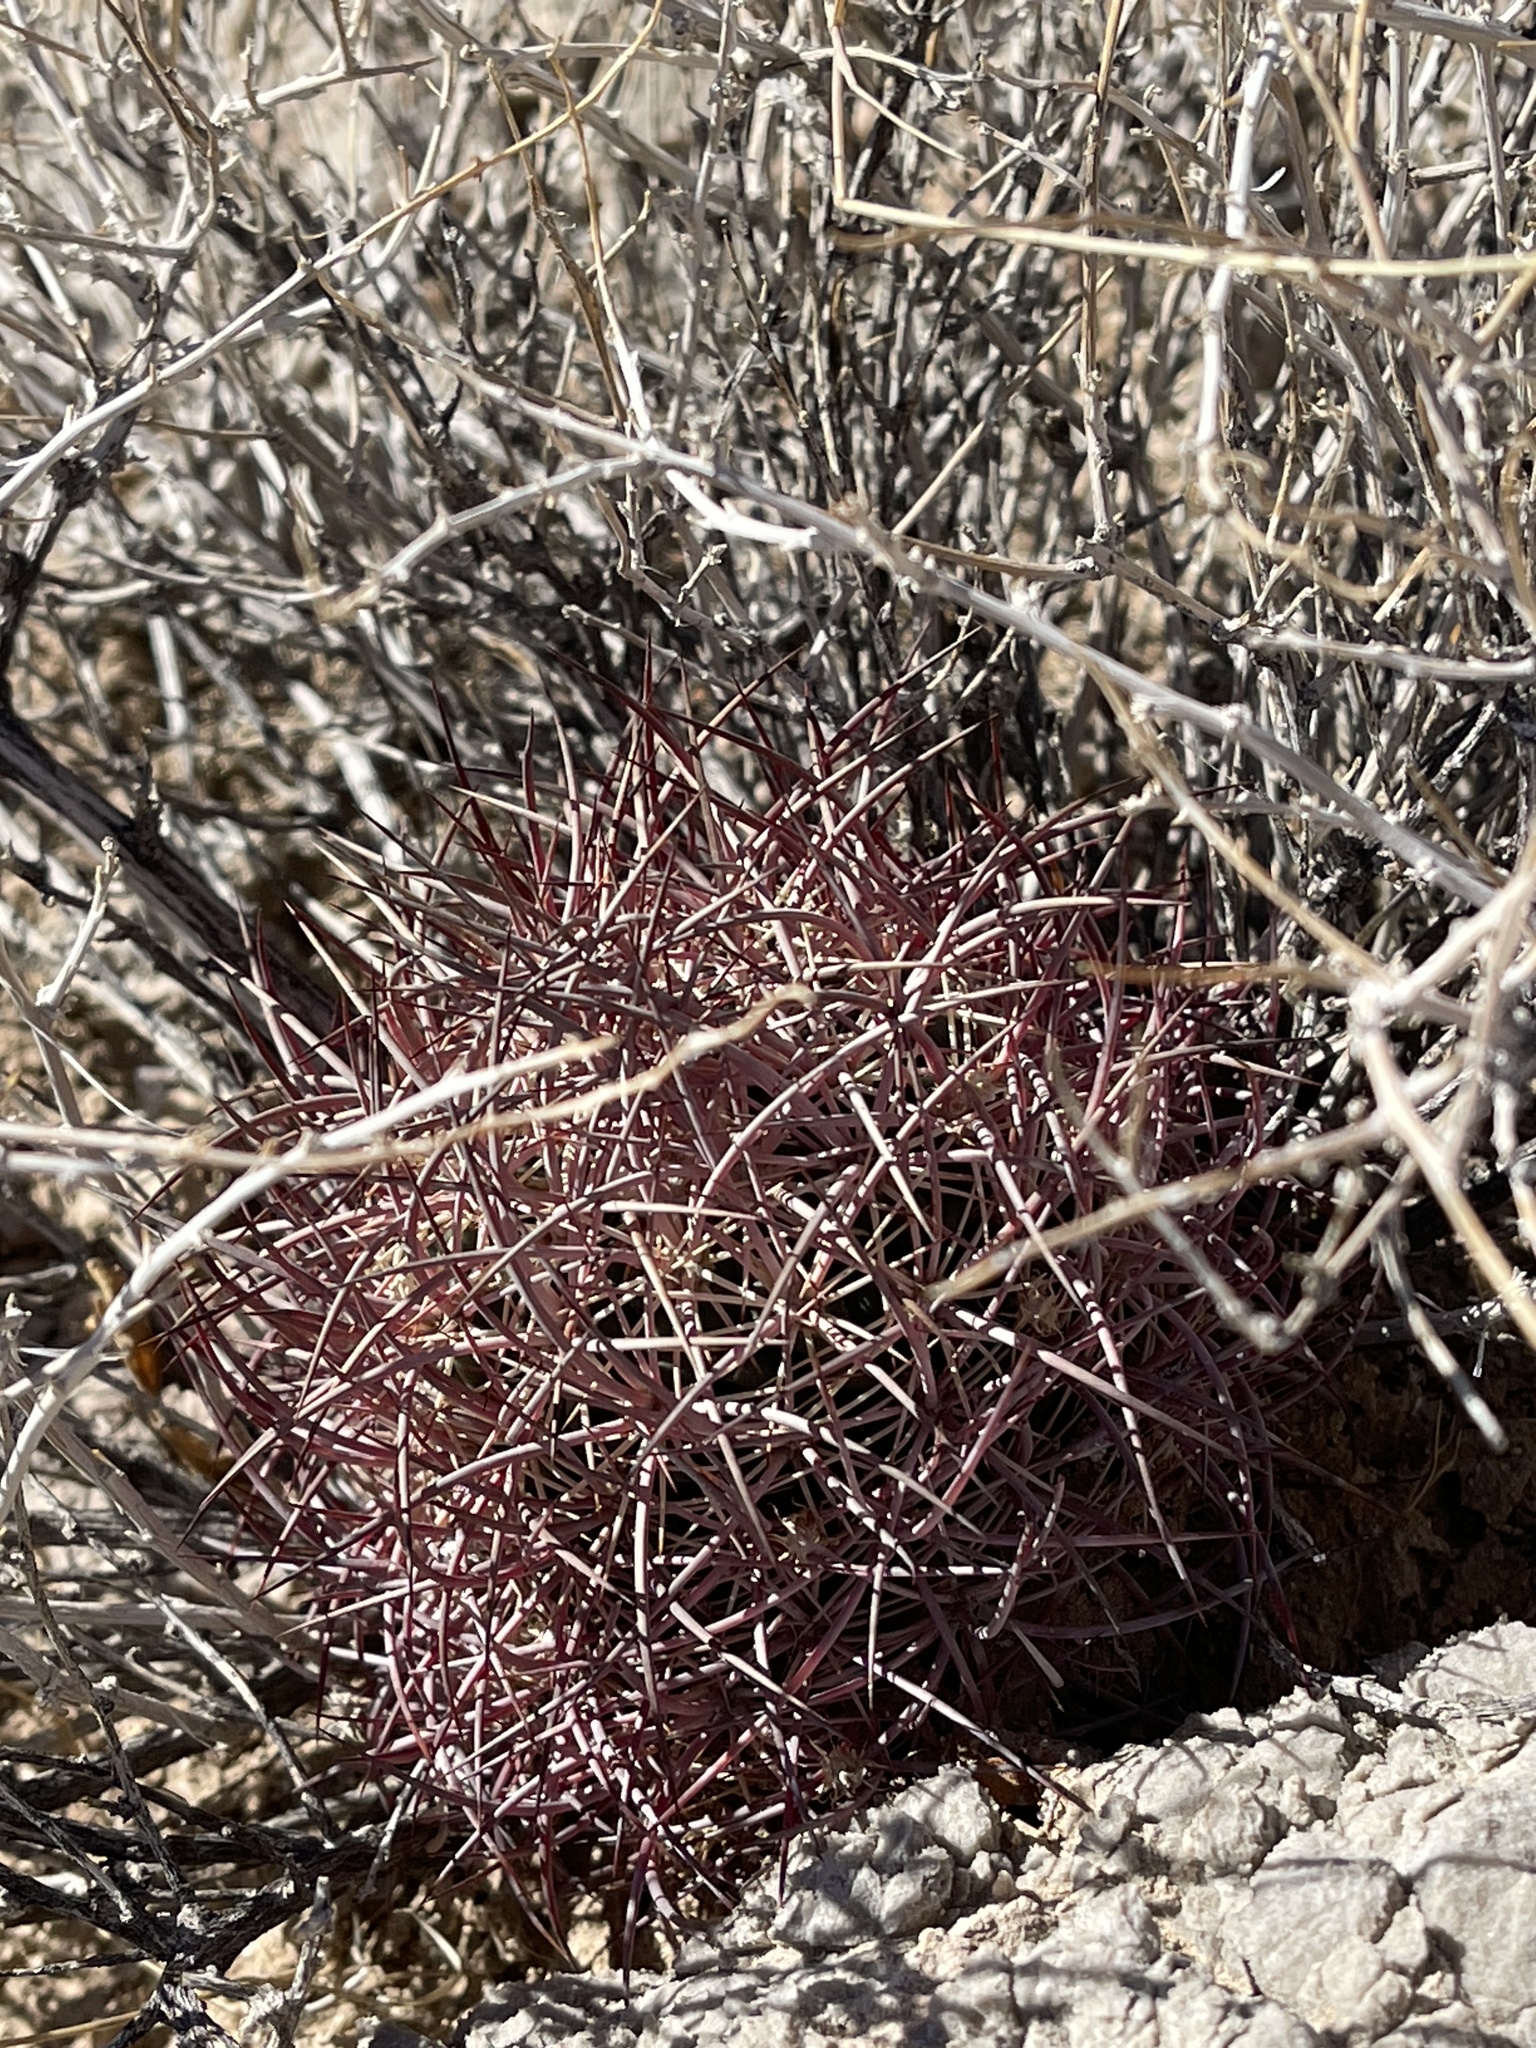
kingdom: Plantae
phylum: Tracheophyta
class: Magnoliopsida
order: Caryophyllales
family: Cactaceae
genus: Sclerocactus
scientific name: Sclerocactus johnsonii
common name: Eight-spine fishhook cactus
